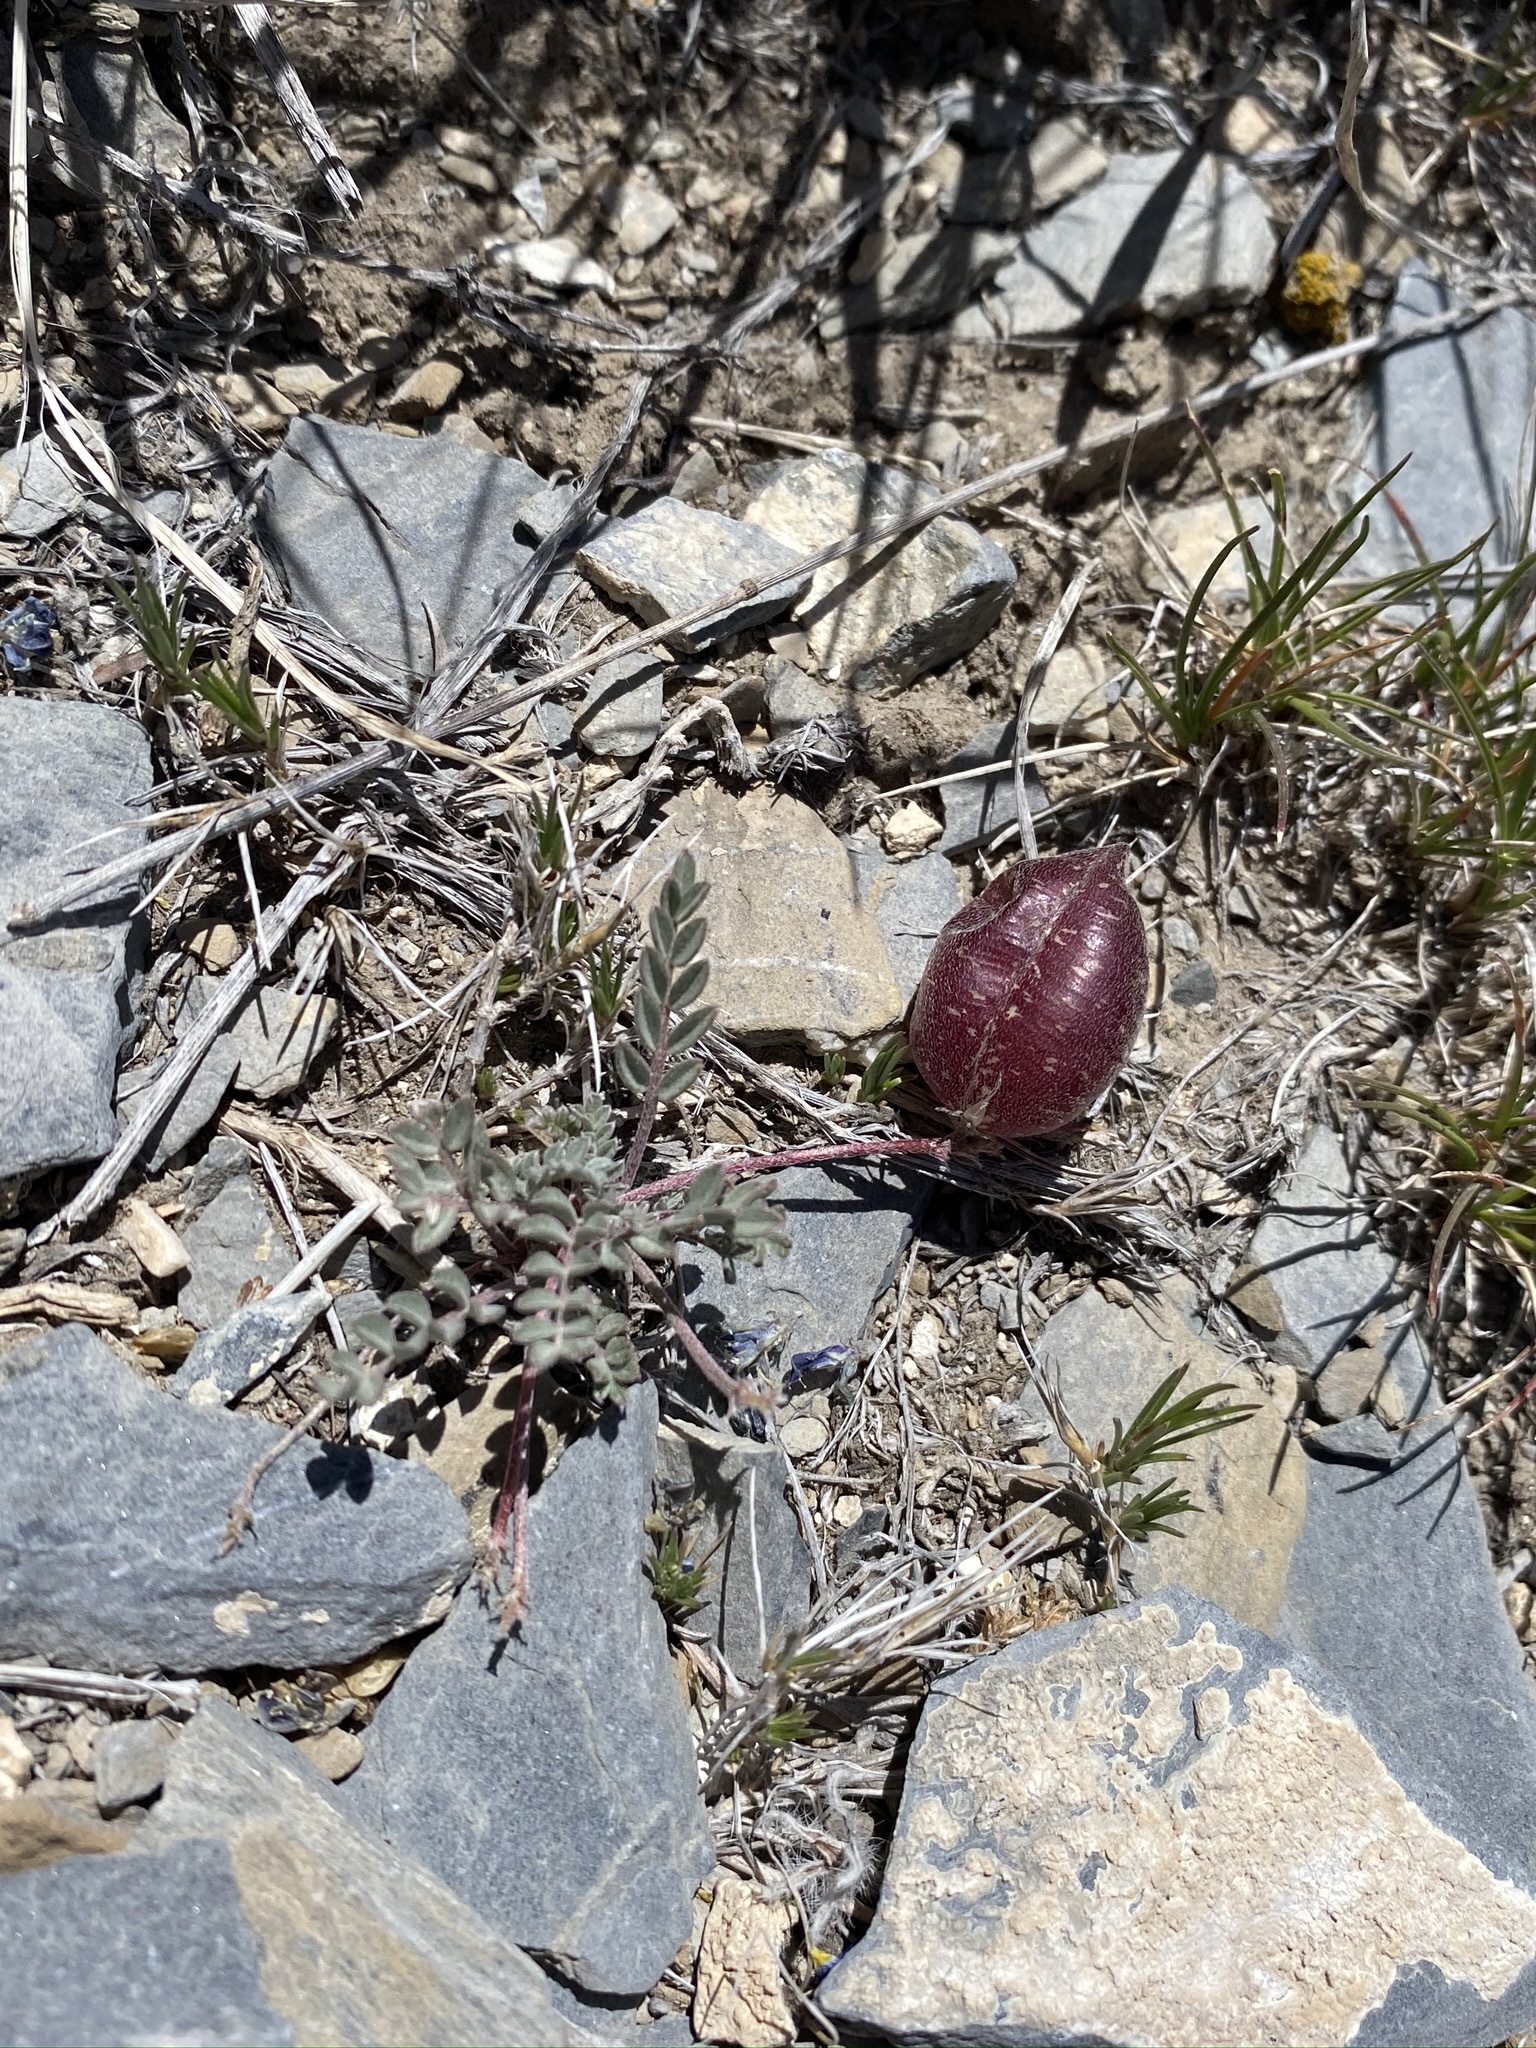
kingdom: Plantae
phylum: Tracheophyta
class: Magnoliopsida
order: Fabales
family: Fabaceae
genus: Astragalus
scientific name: Astragalus platytropis
